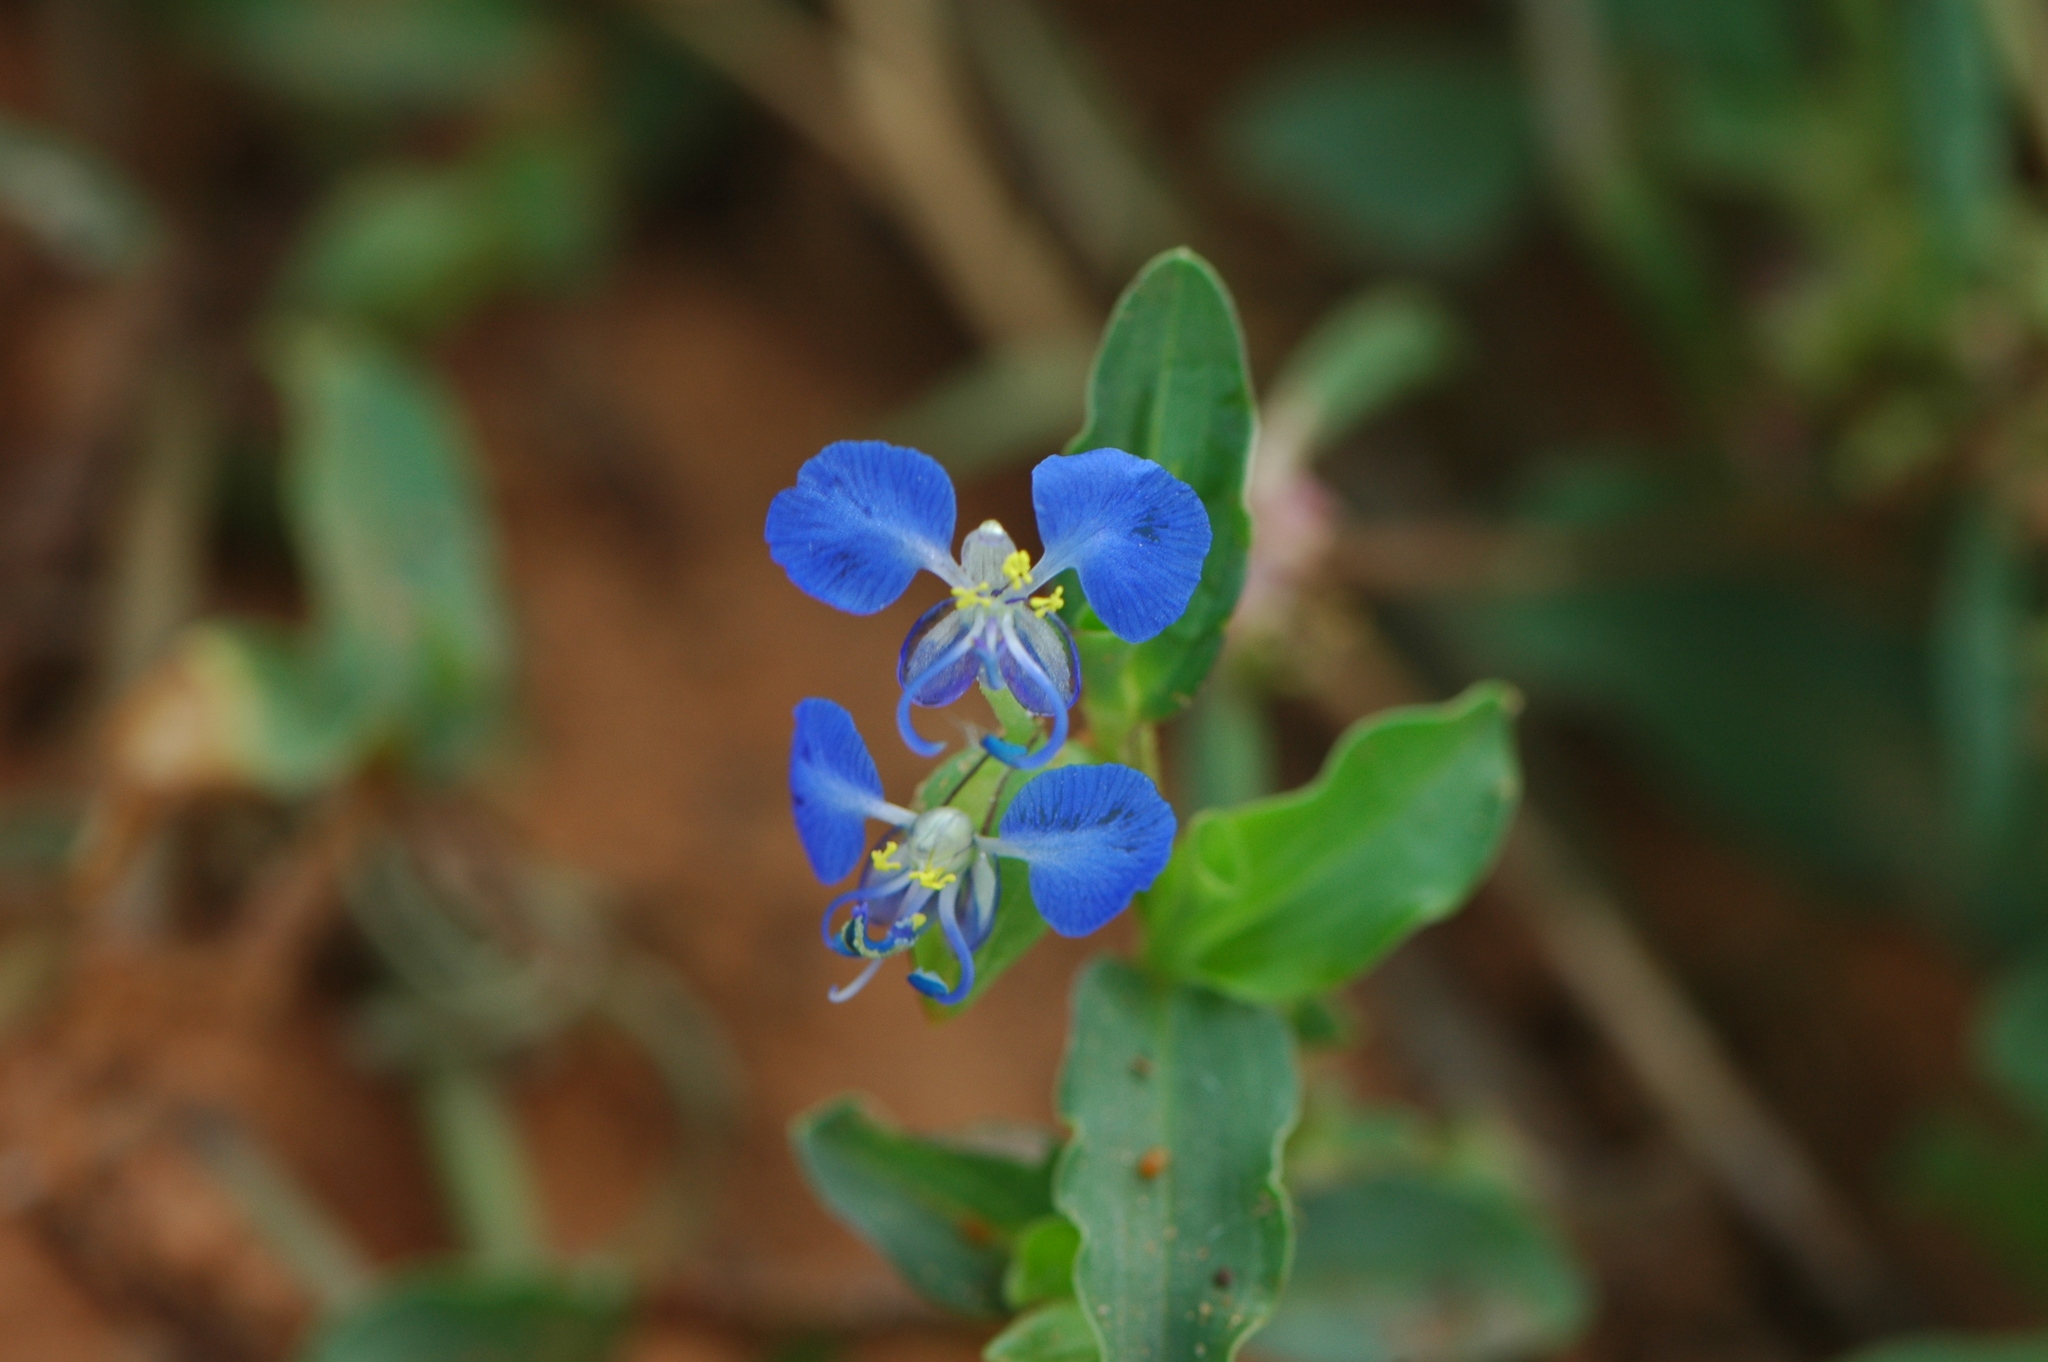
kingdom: Plantae
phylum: Tracheophyta
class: Liliopsida
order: Commelinales
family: Commelinaceae
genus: Commelina
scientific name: Commelina forskaolii
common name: Rat's ear
